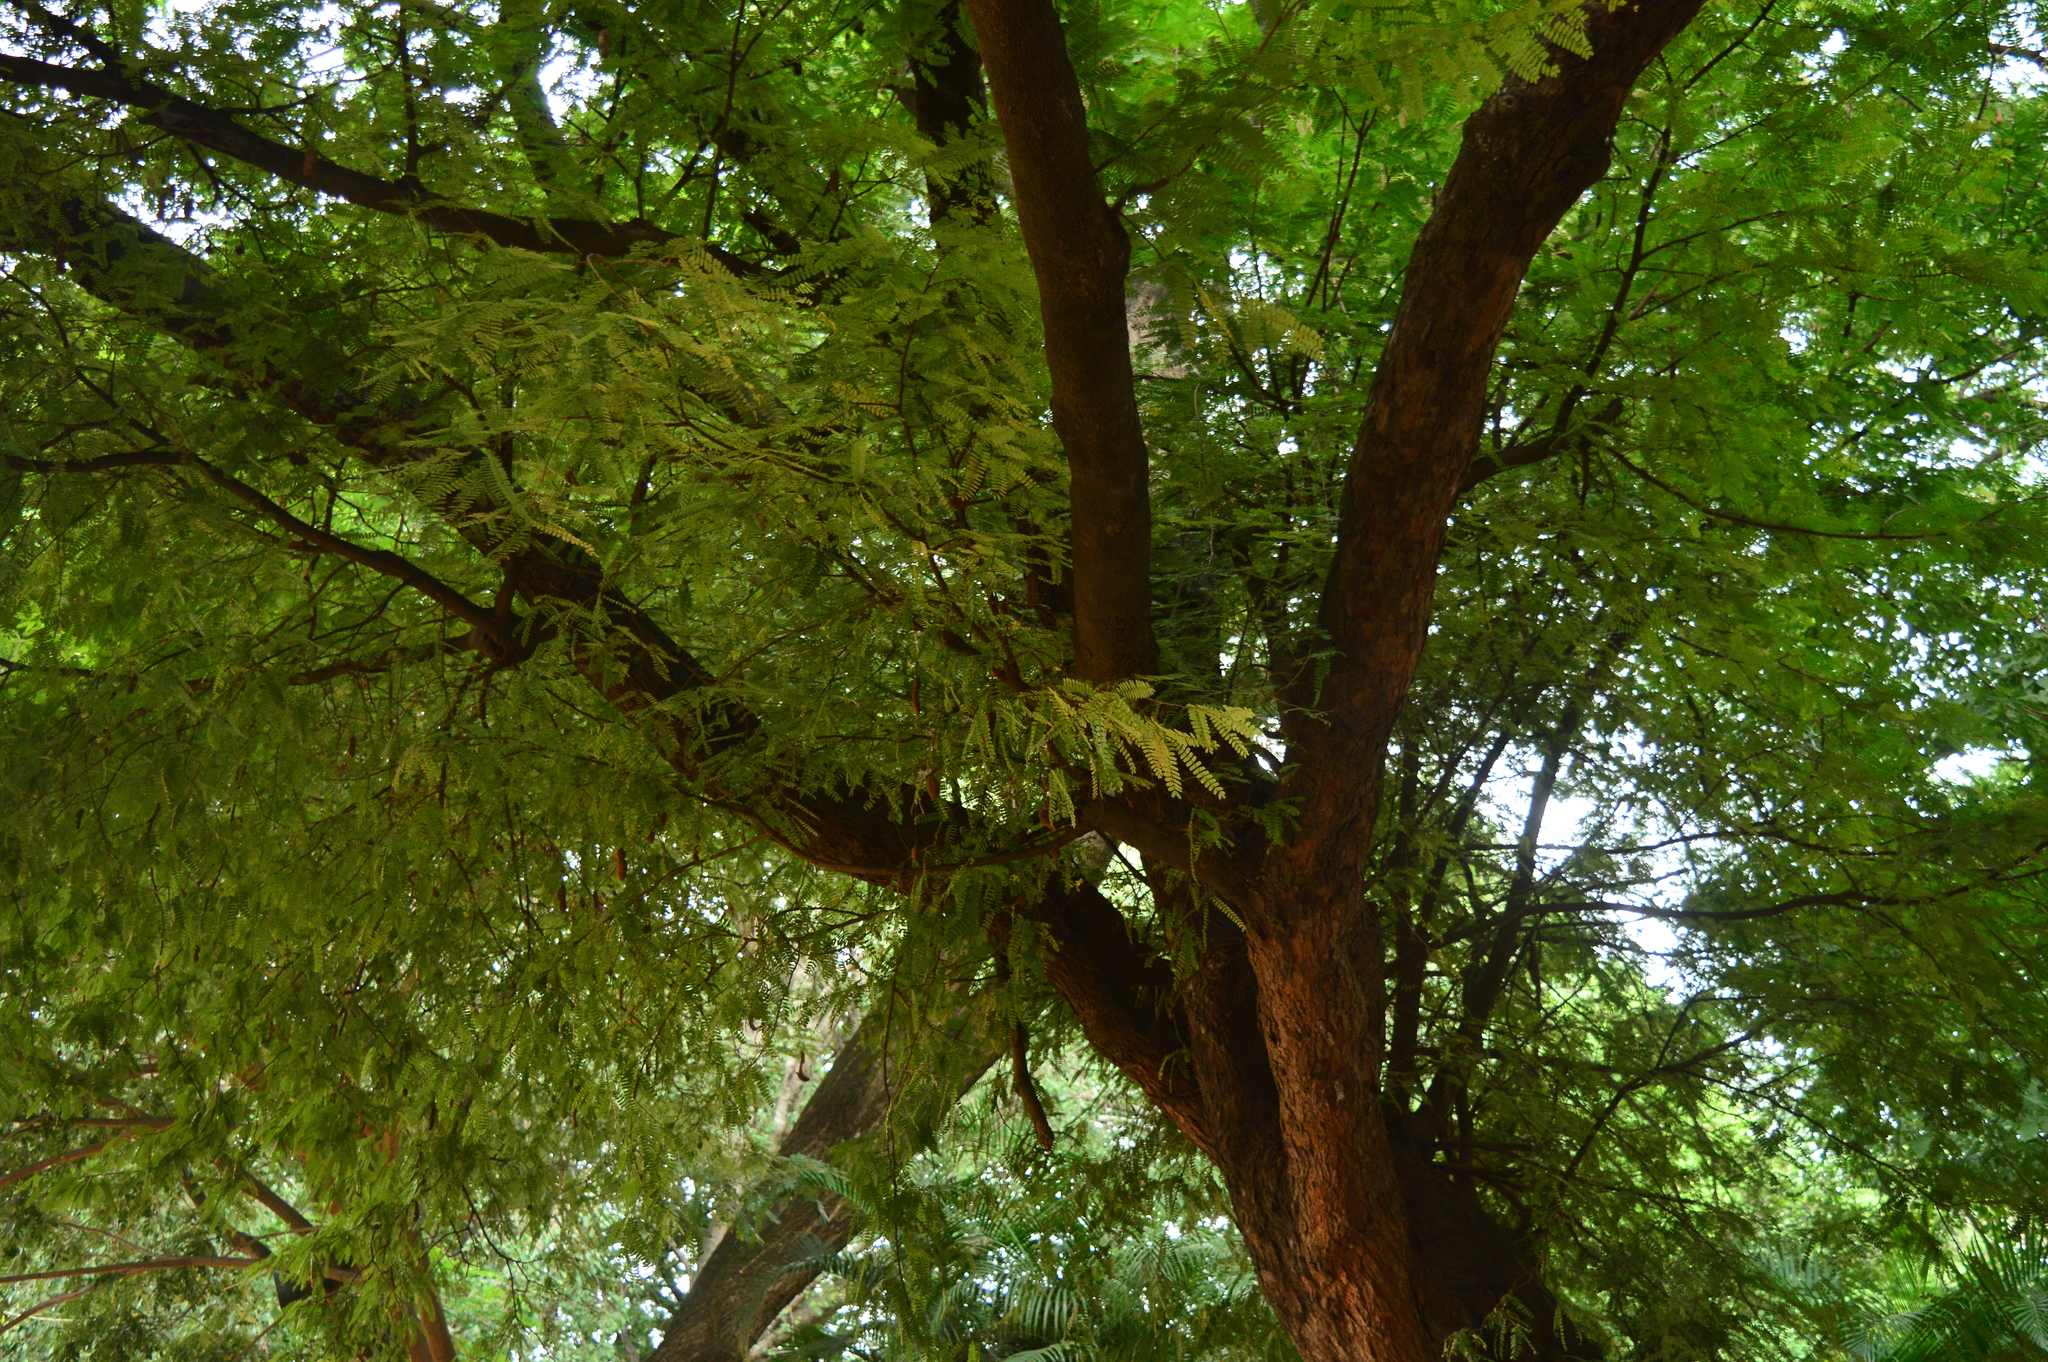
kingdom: Plantae
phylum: Tracheophyta
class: Magnoliopsida
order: Fabales
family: Fabaceae
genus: Tamarindus
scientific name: Tamarindus indica
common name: Tamarind
